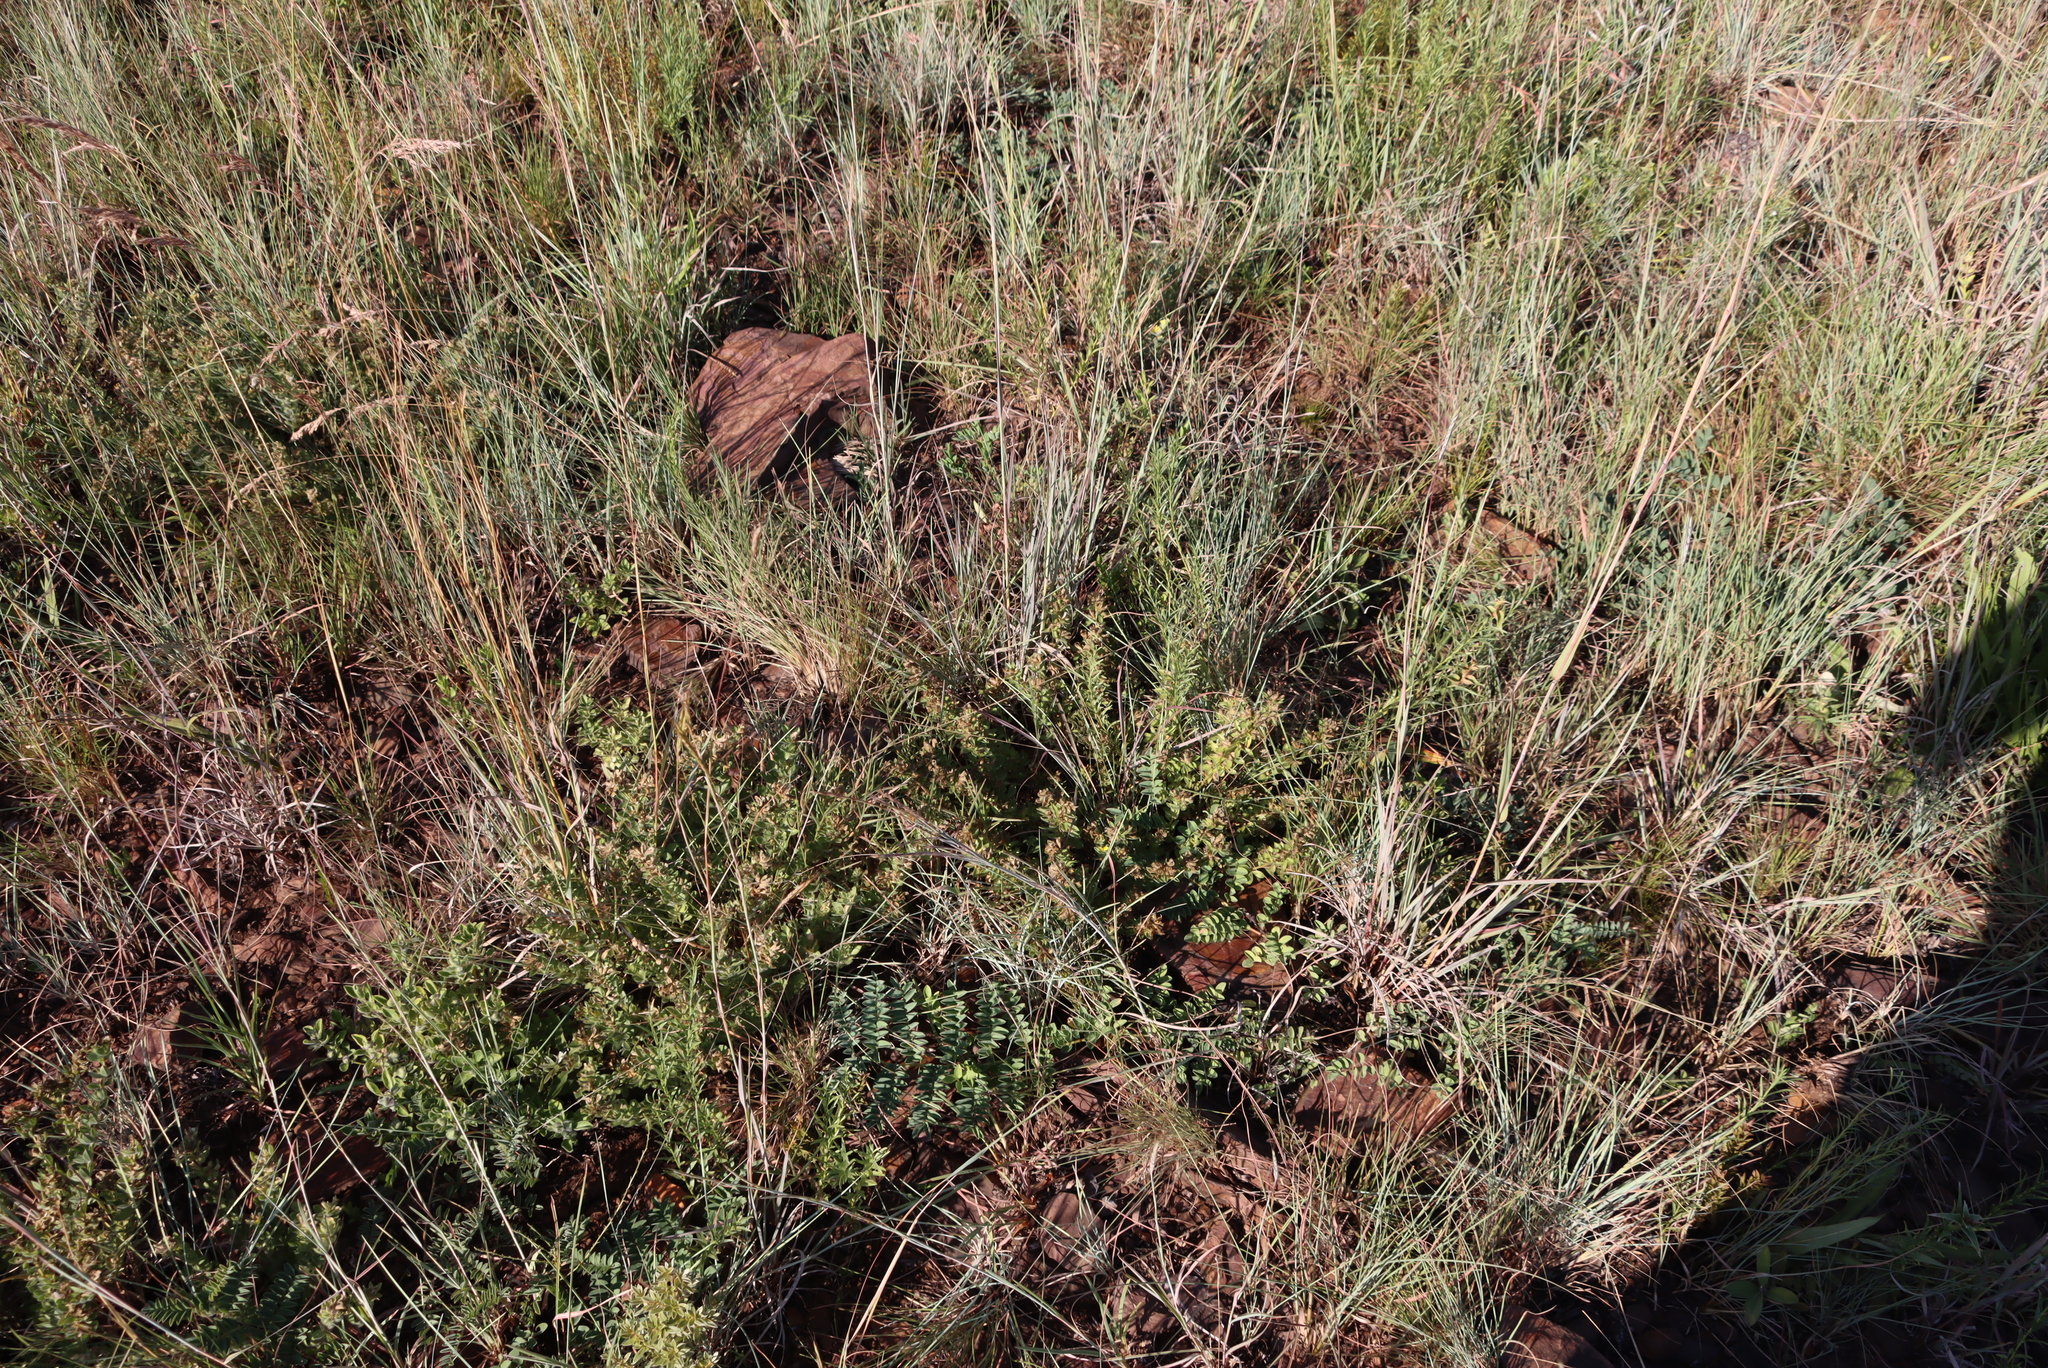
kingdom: Plantae
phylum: Tracheophyta
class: Magnoliopsida
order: Fabales
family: Fabaceae
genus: Leobordea
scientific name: Leobordea corymbosa
